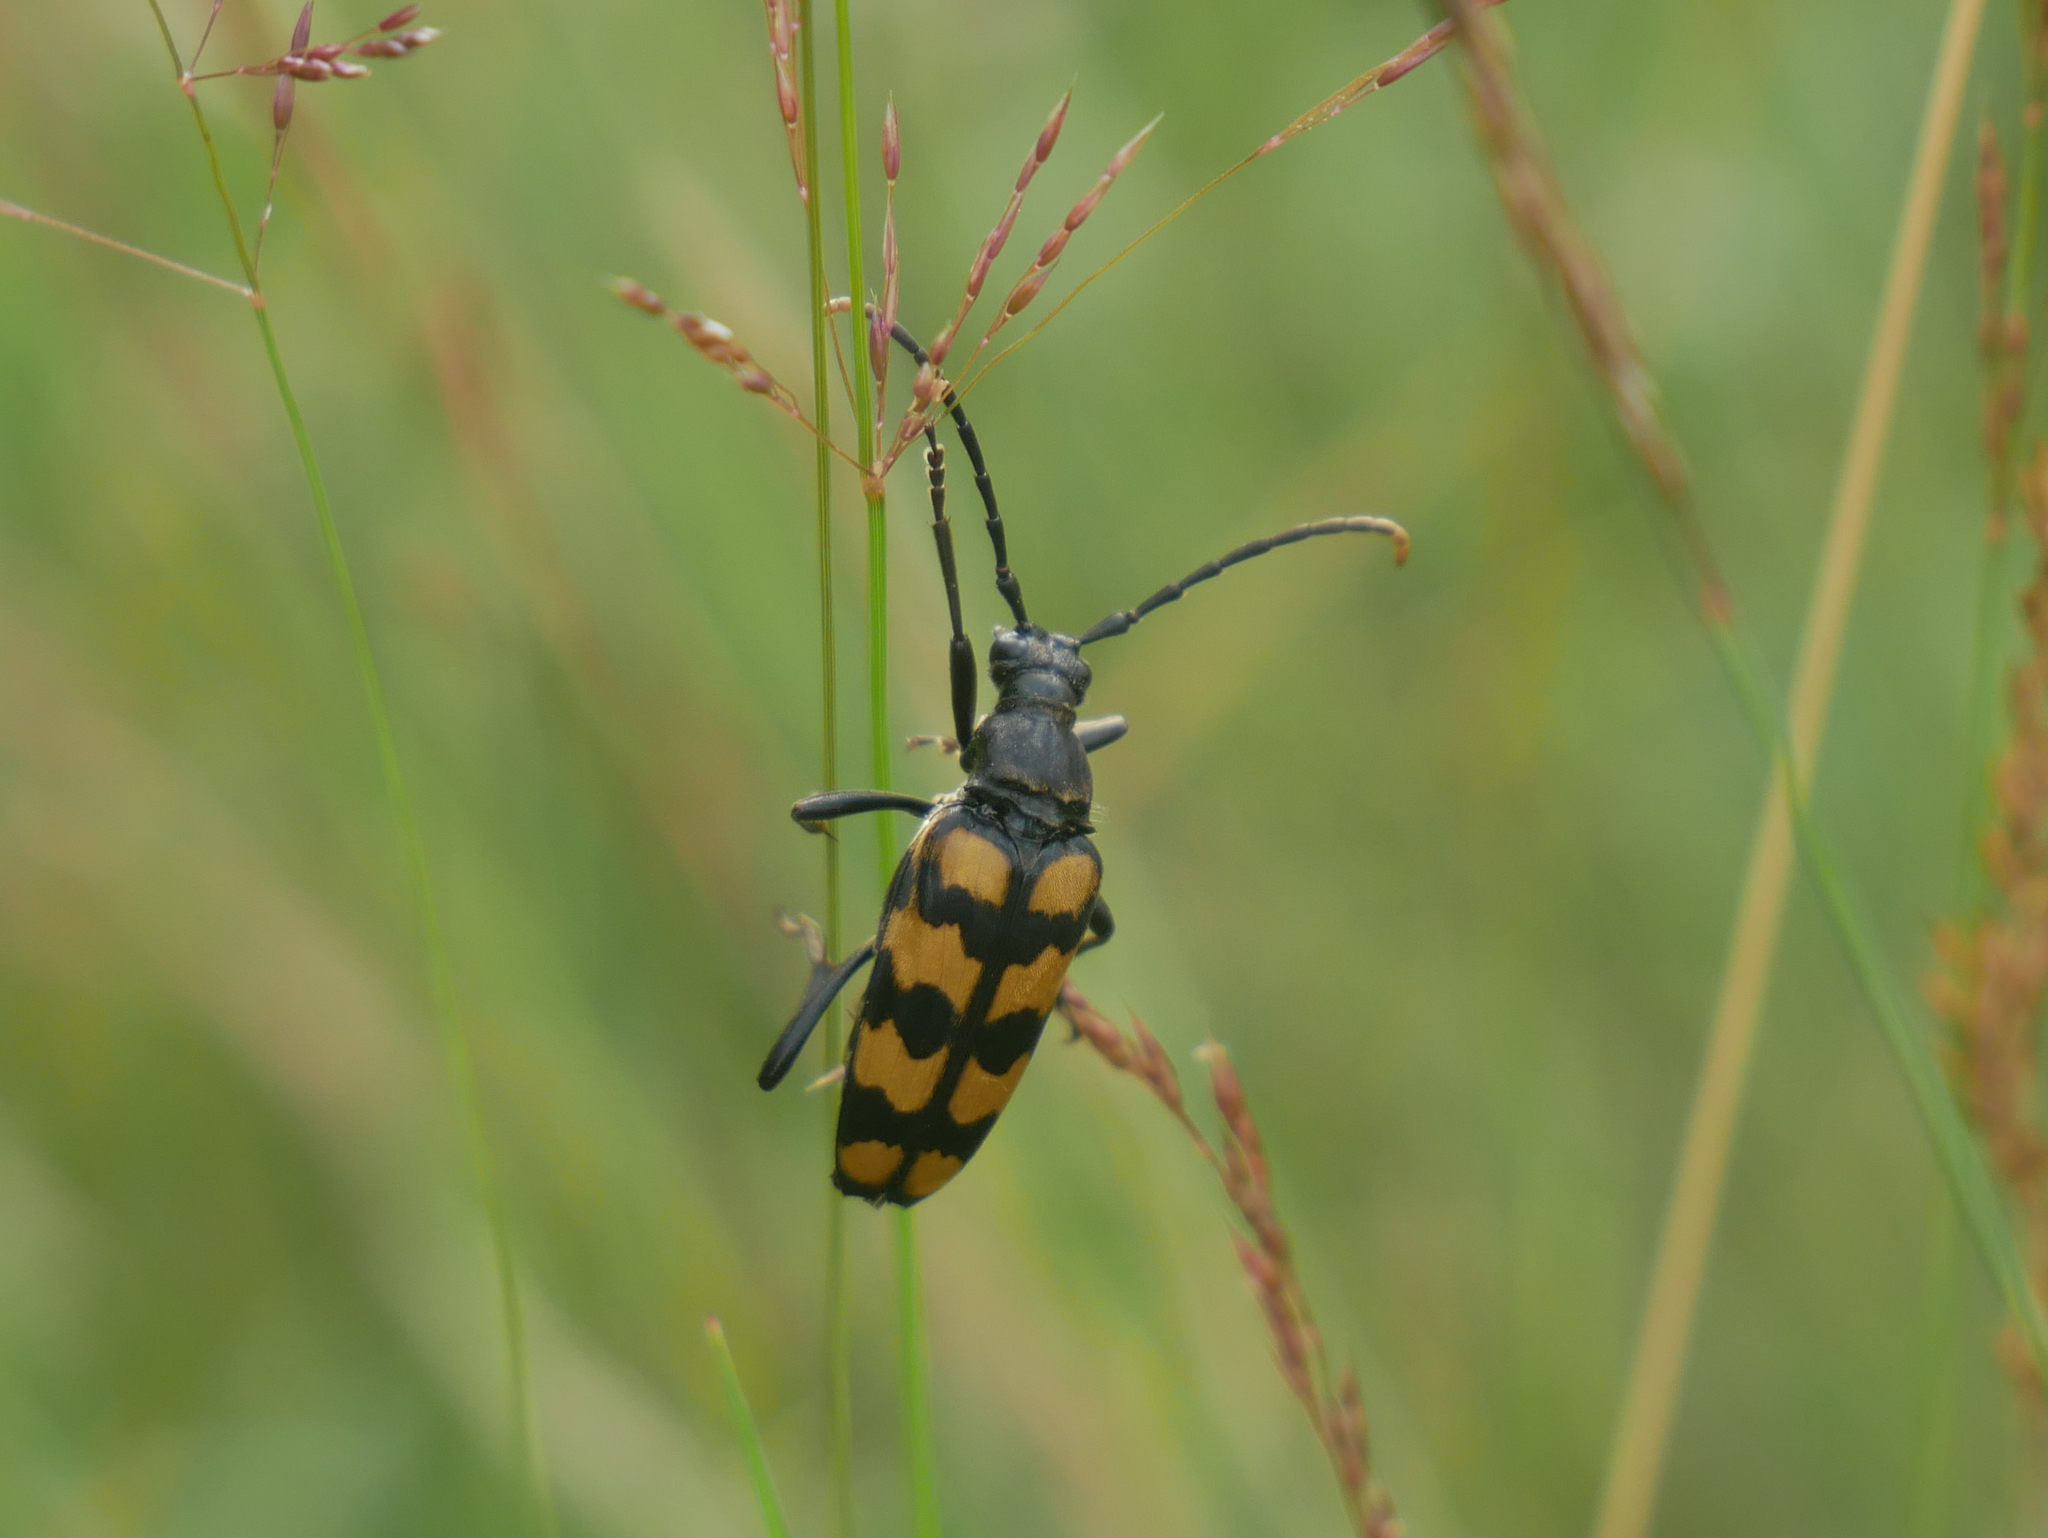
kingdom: Animalia
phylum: Arthropoda
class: Insecta
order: Coleoptera
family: Cerambycidae
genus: Leptura
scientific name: Leptura quadrifasciata
